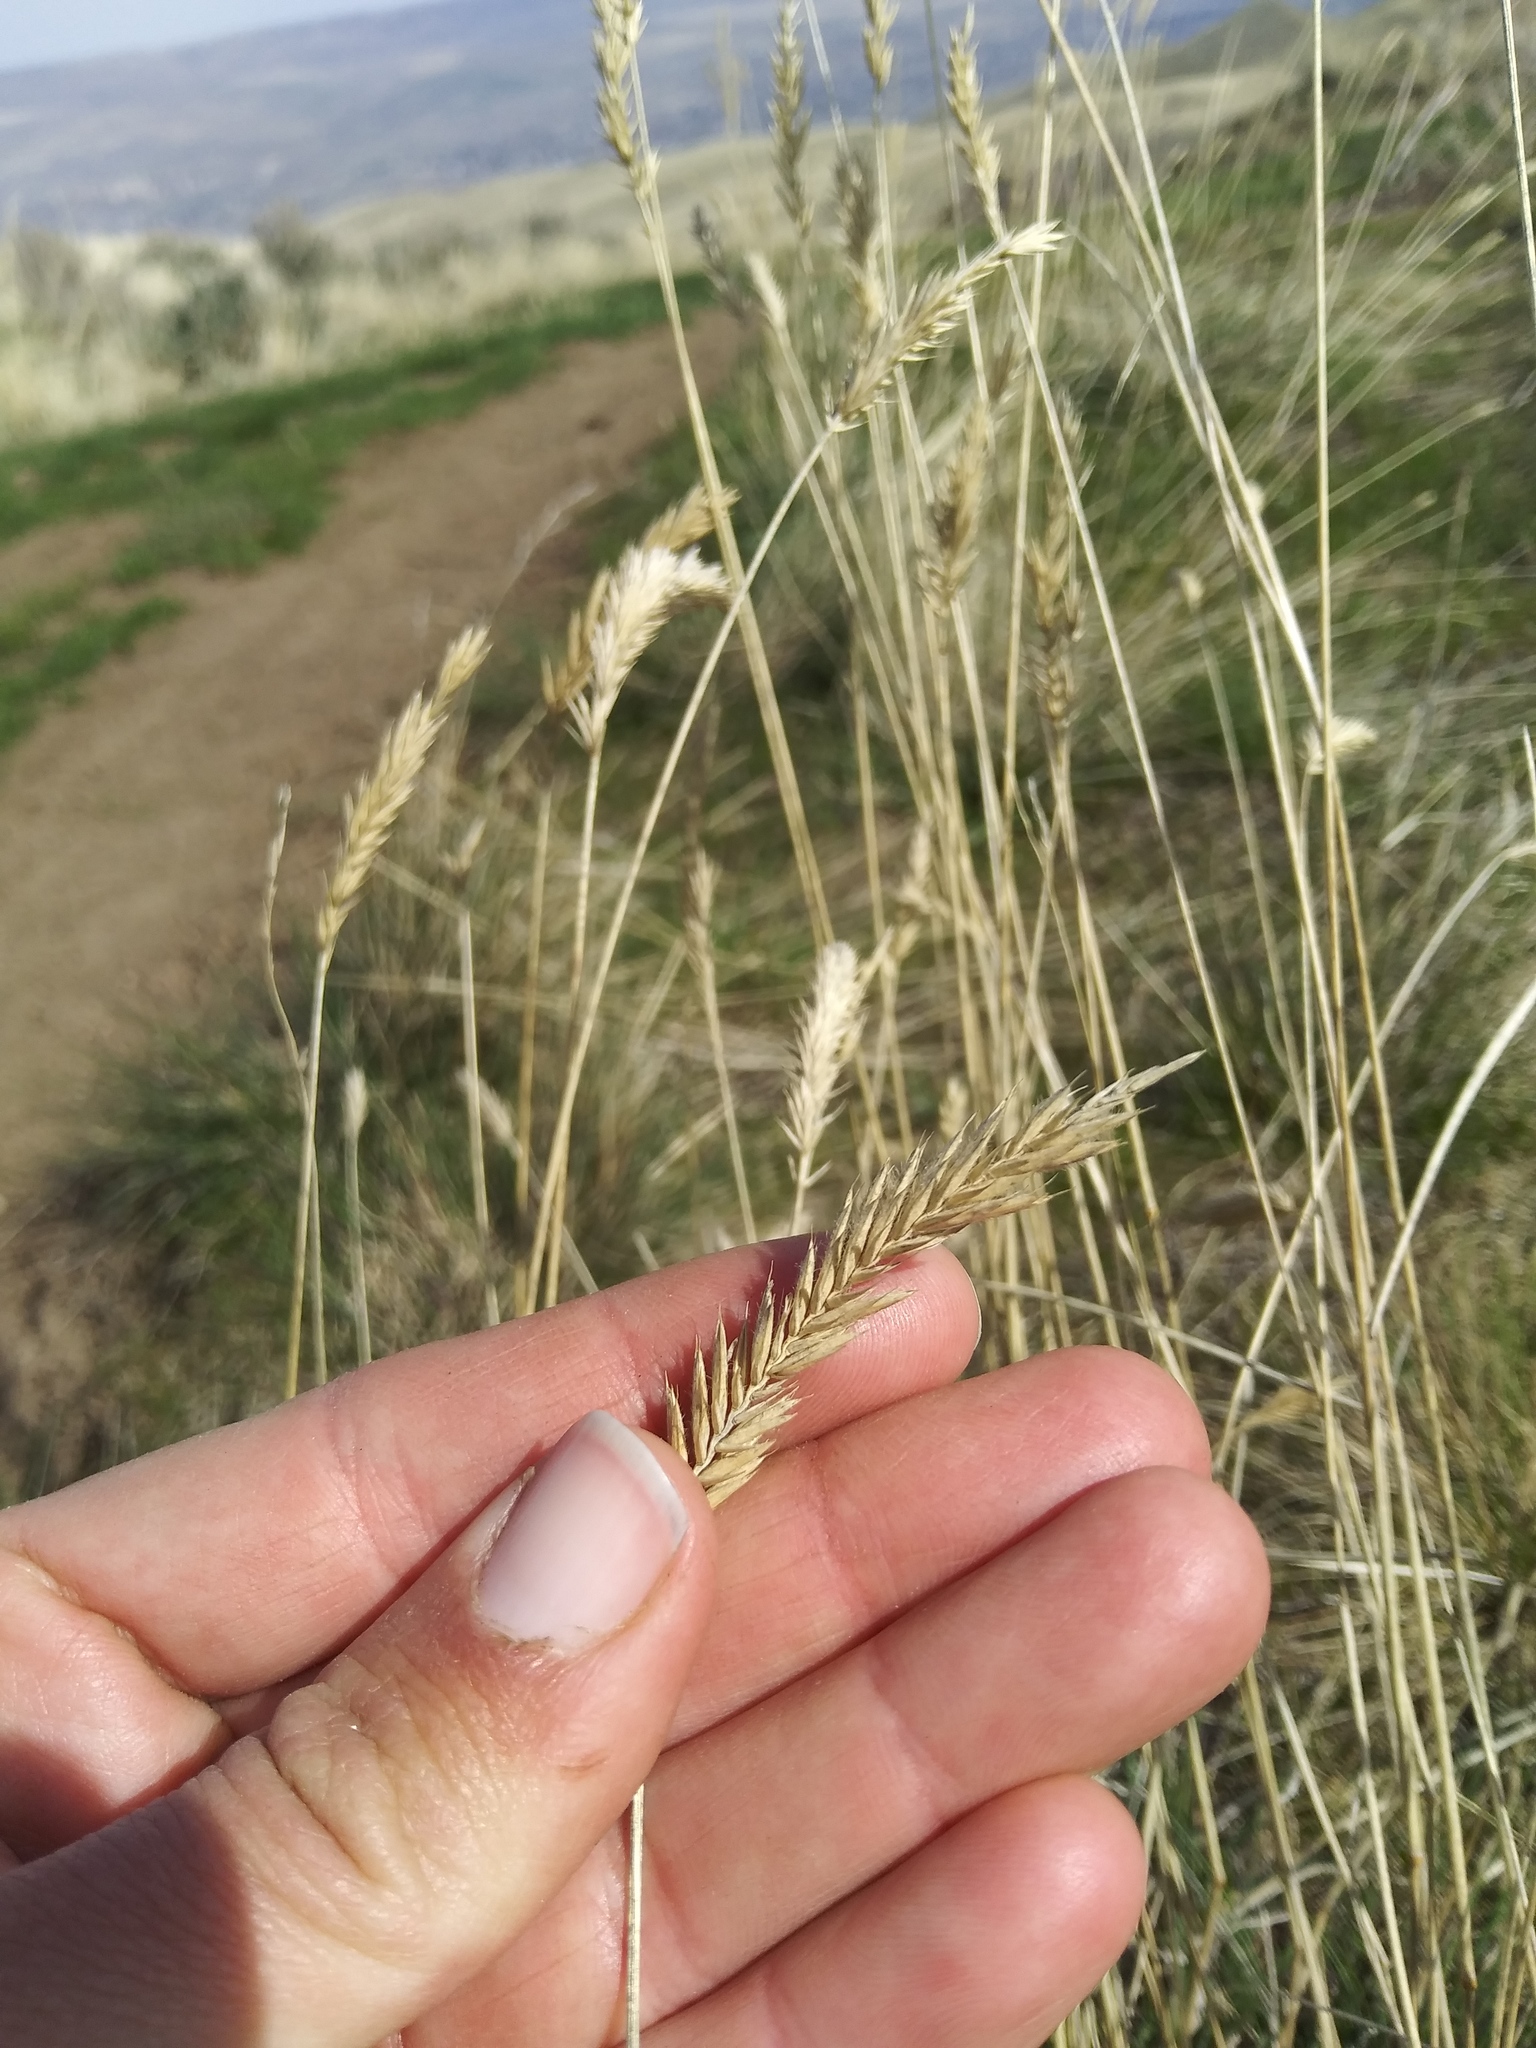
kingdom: Plantae
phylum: Tracheophyta
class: Liliopsida
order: Poales
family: Poaceae
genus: Agropyron
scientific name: Agropyron cristatum
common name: Crested wheatgrass
